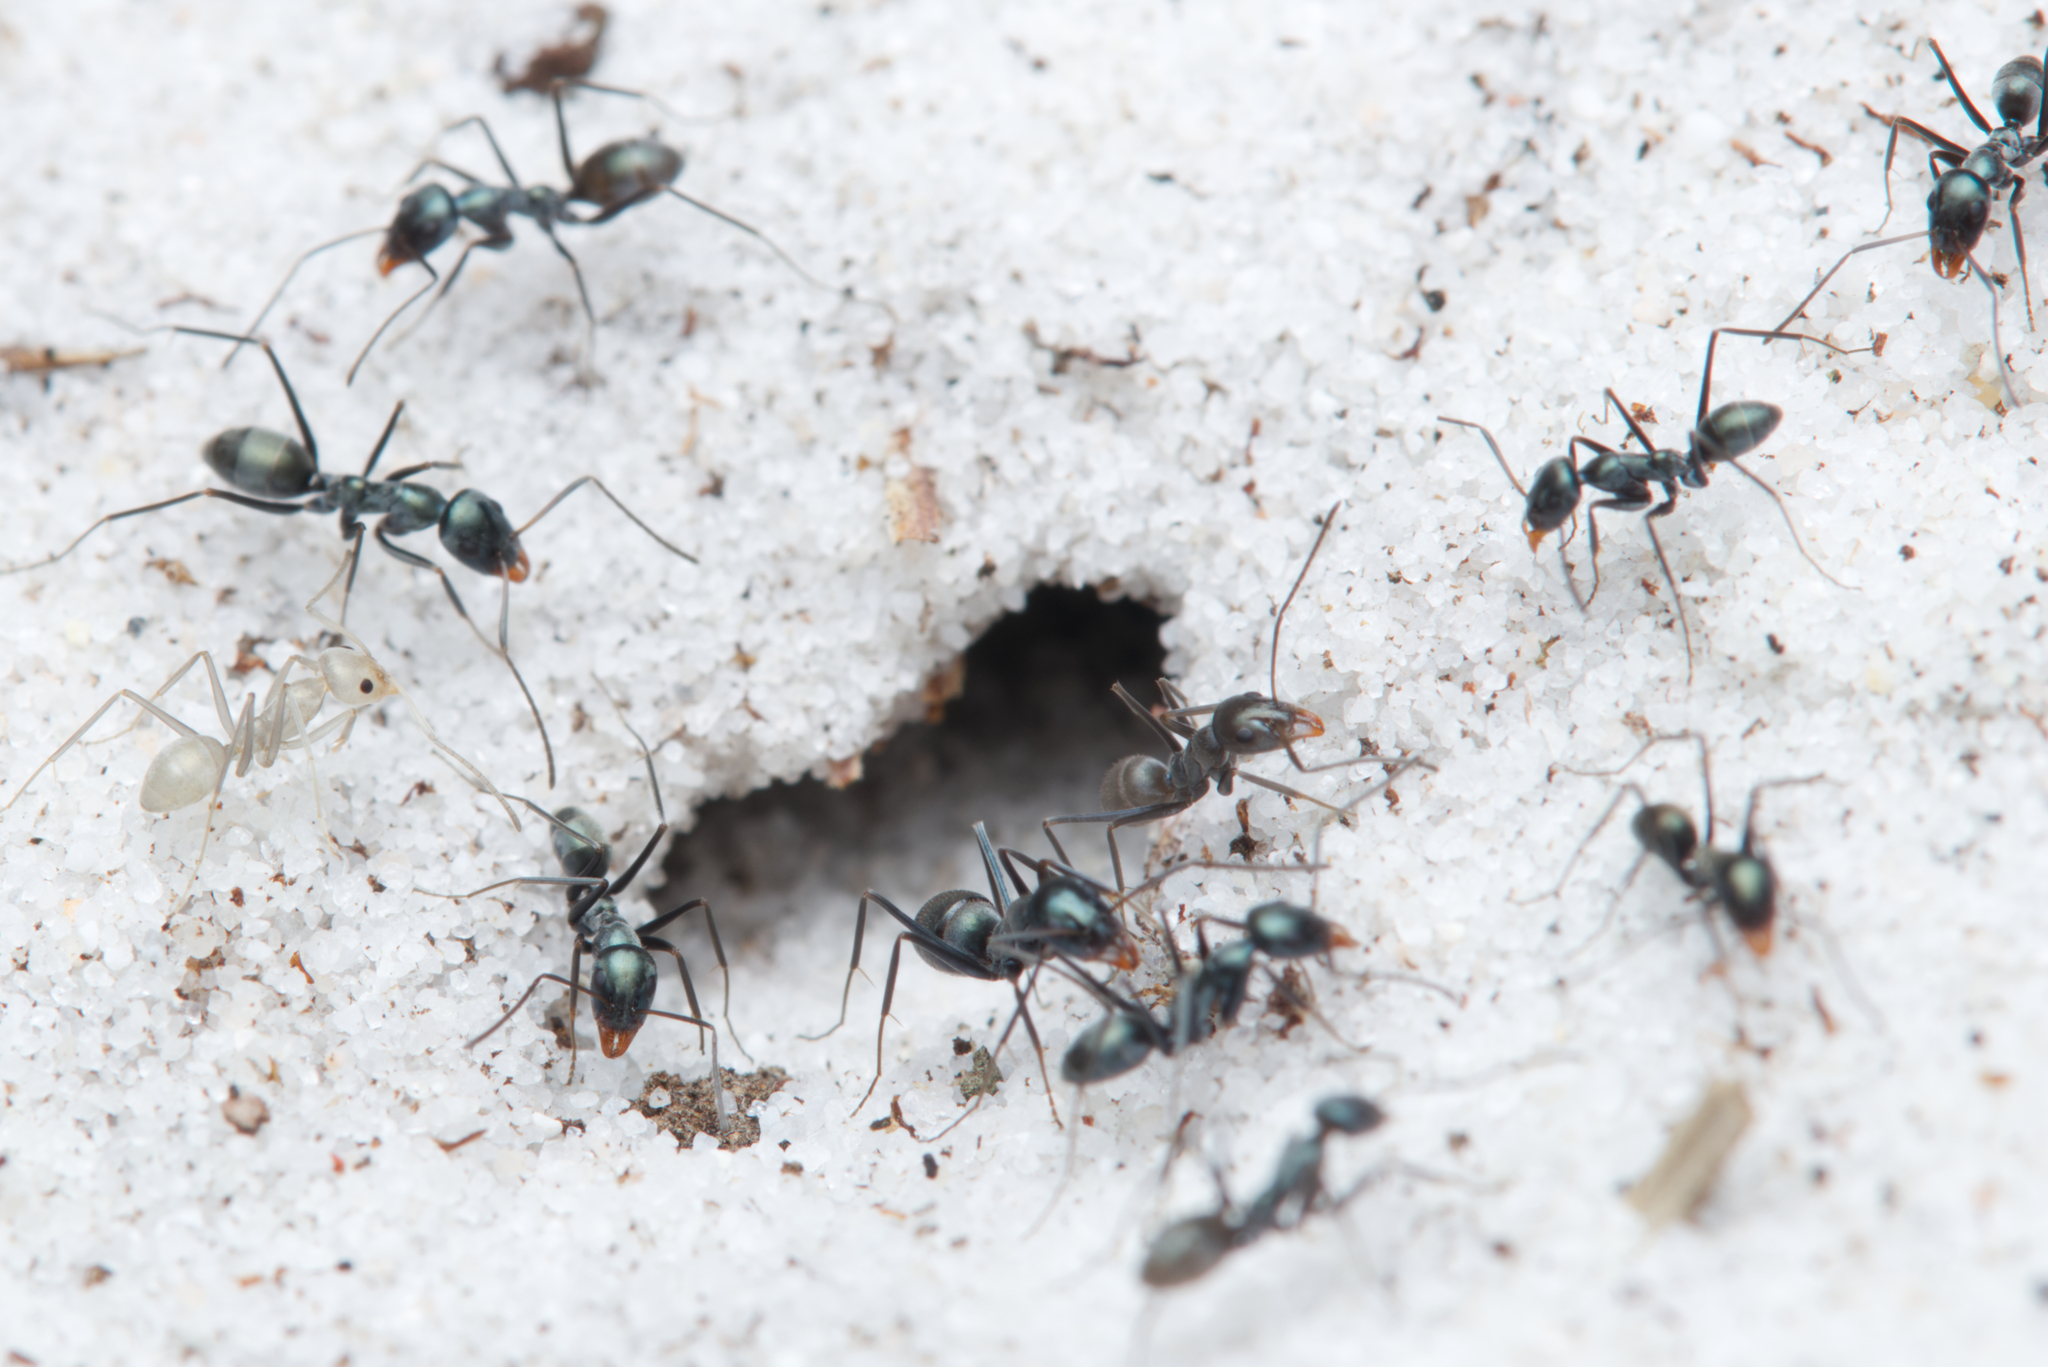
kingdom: Animalia
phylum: Arthropoda
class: Insecta
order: Hymenoptera
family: Formicidae
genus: Iridomyrmex
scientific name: Iridomyrmex bicknelli
